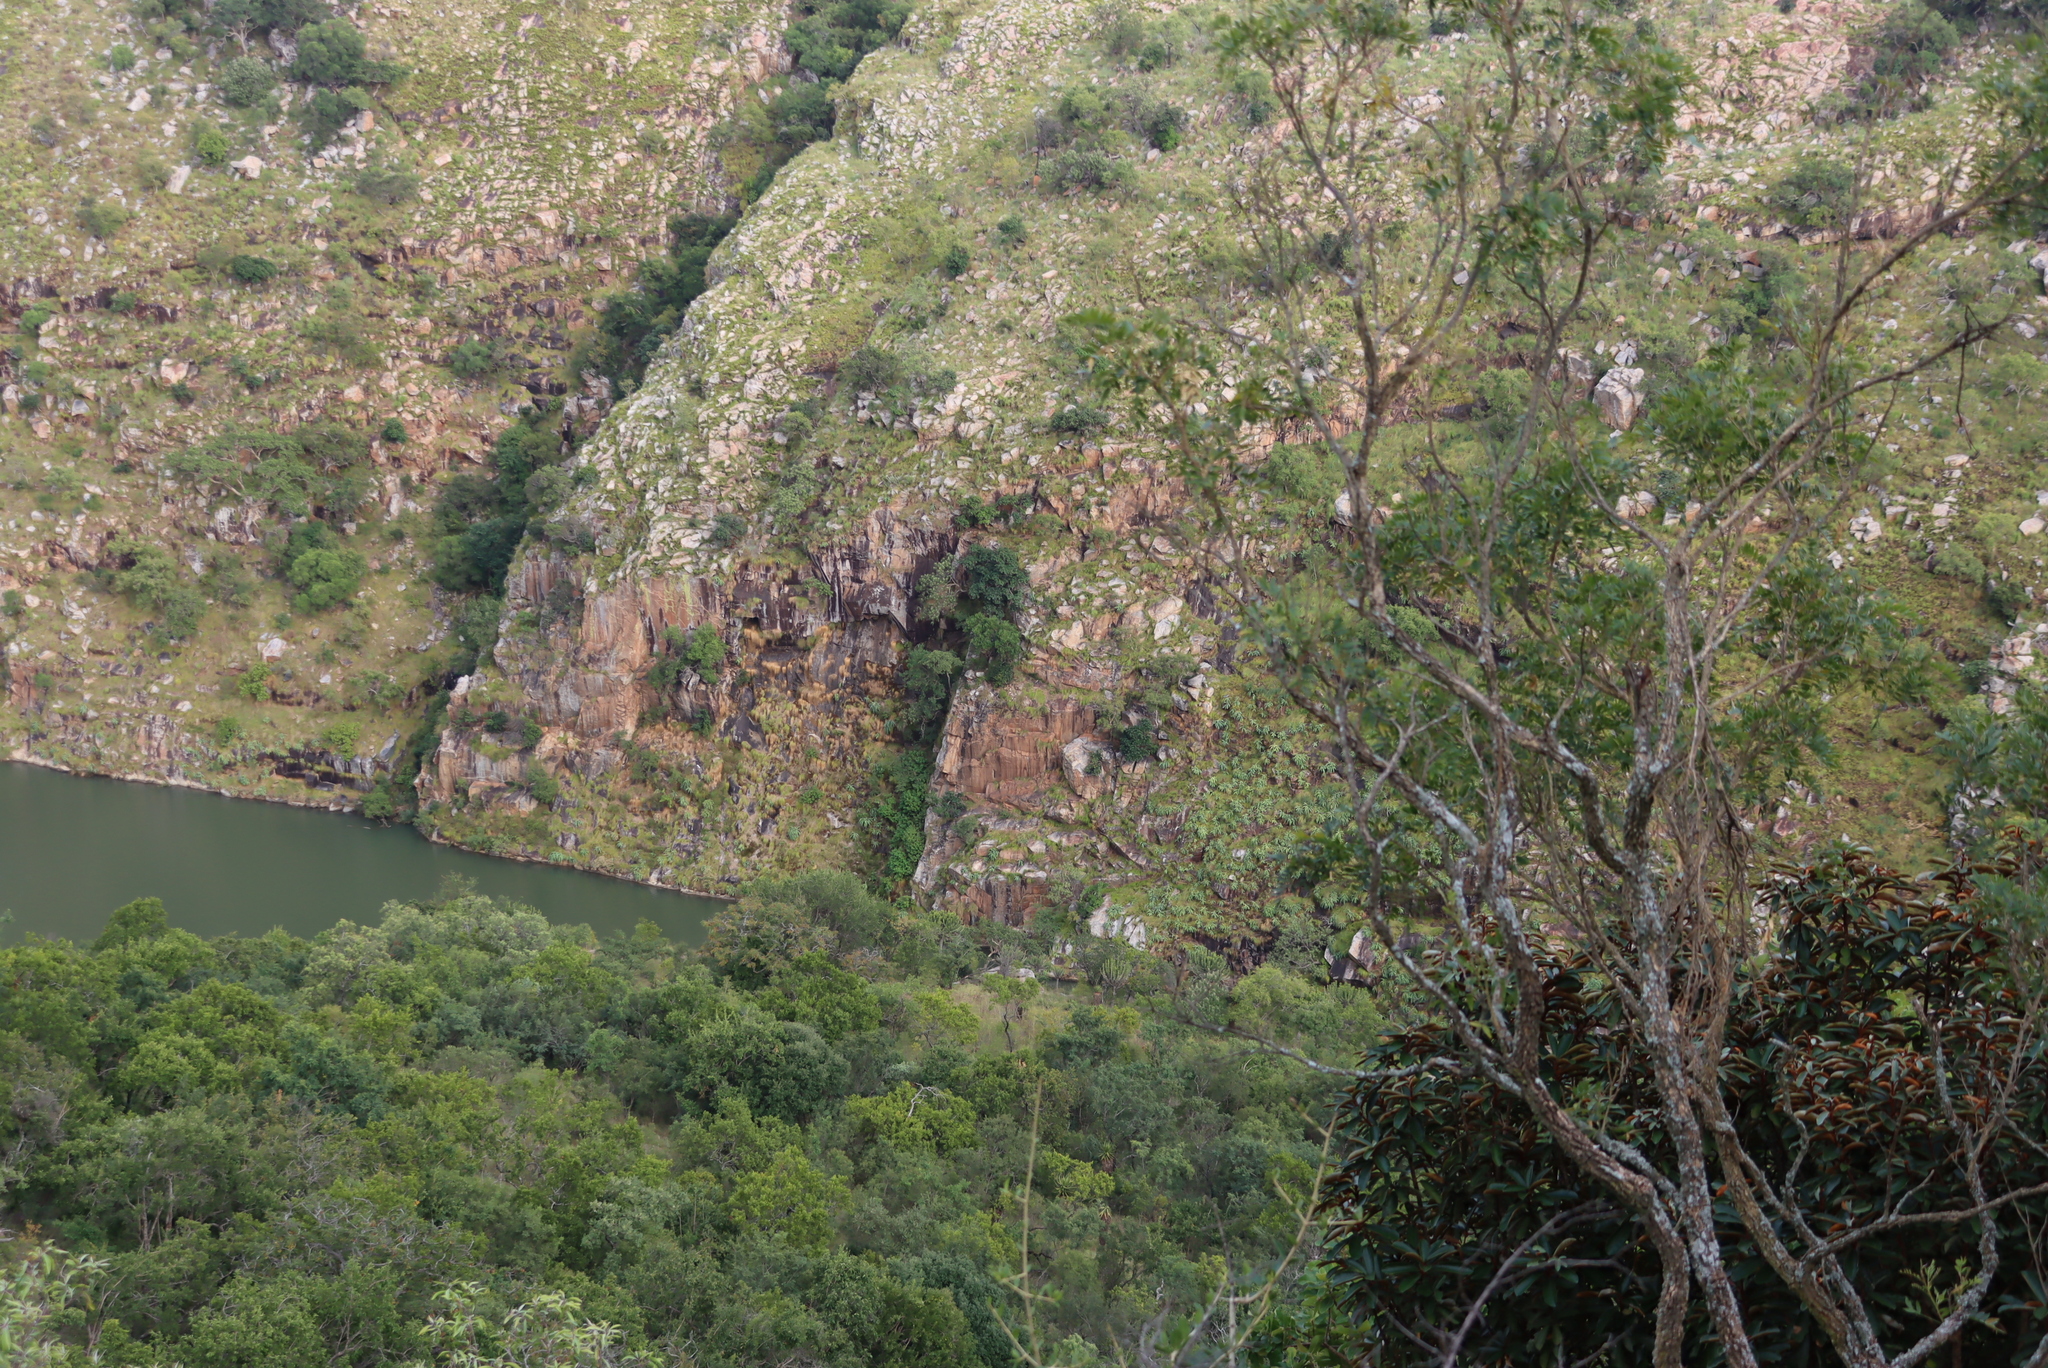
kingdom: Plantae
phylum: Tracheophyta
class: Liliopsida
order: Asparagales
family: Asparagaceae
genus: Merwilla
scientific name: Merwilla plumbea
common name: Blue-squill
